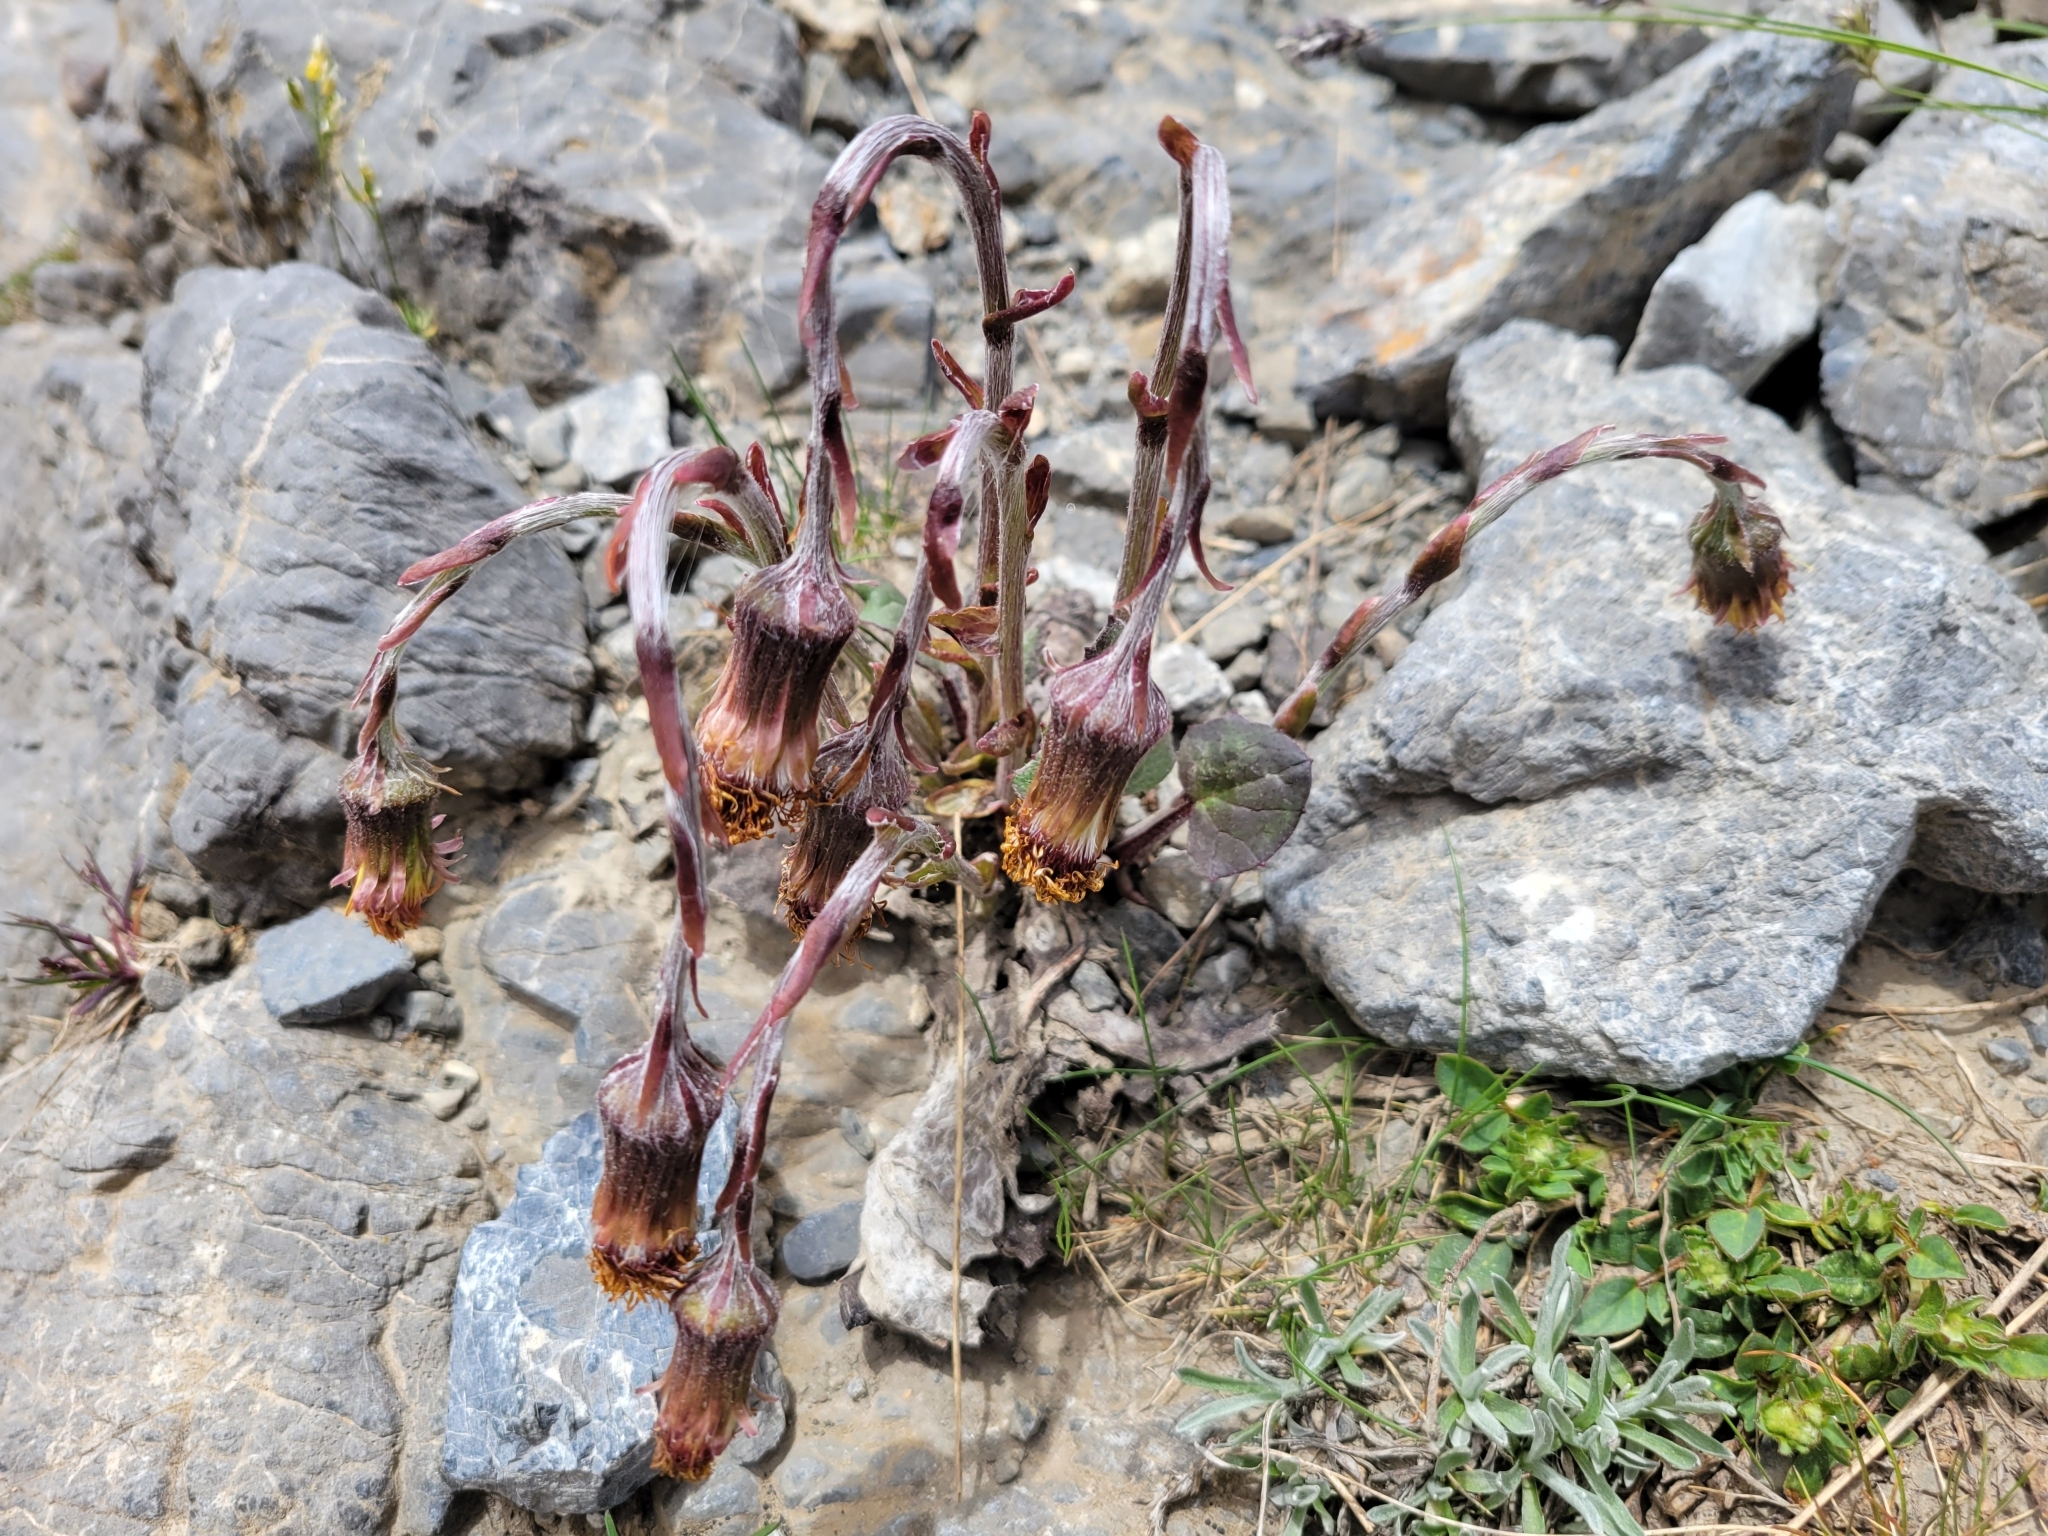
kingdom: Plantae
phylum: Tracheophyta
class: Magnoliopsida
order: Asterales
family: Asteraceae
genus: Tussilago
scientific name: Tussilago farfara
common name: Coltsfoot
